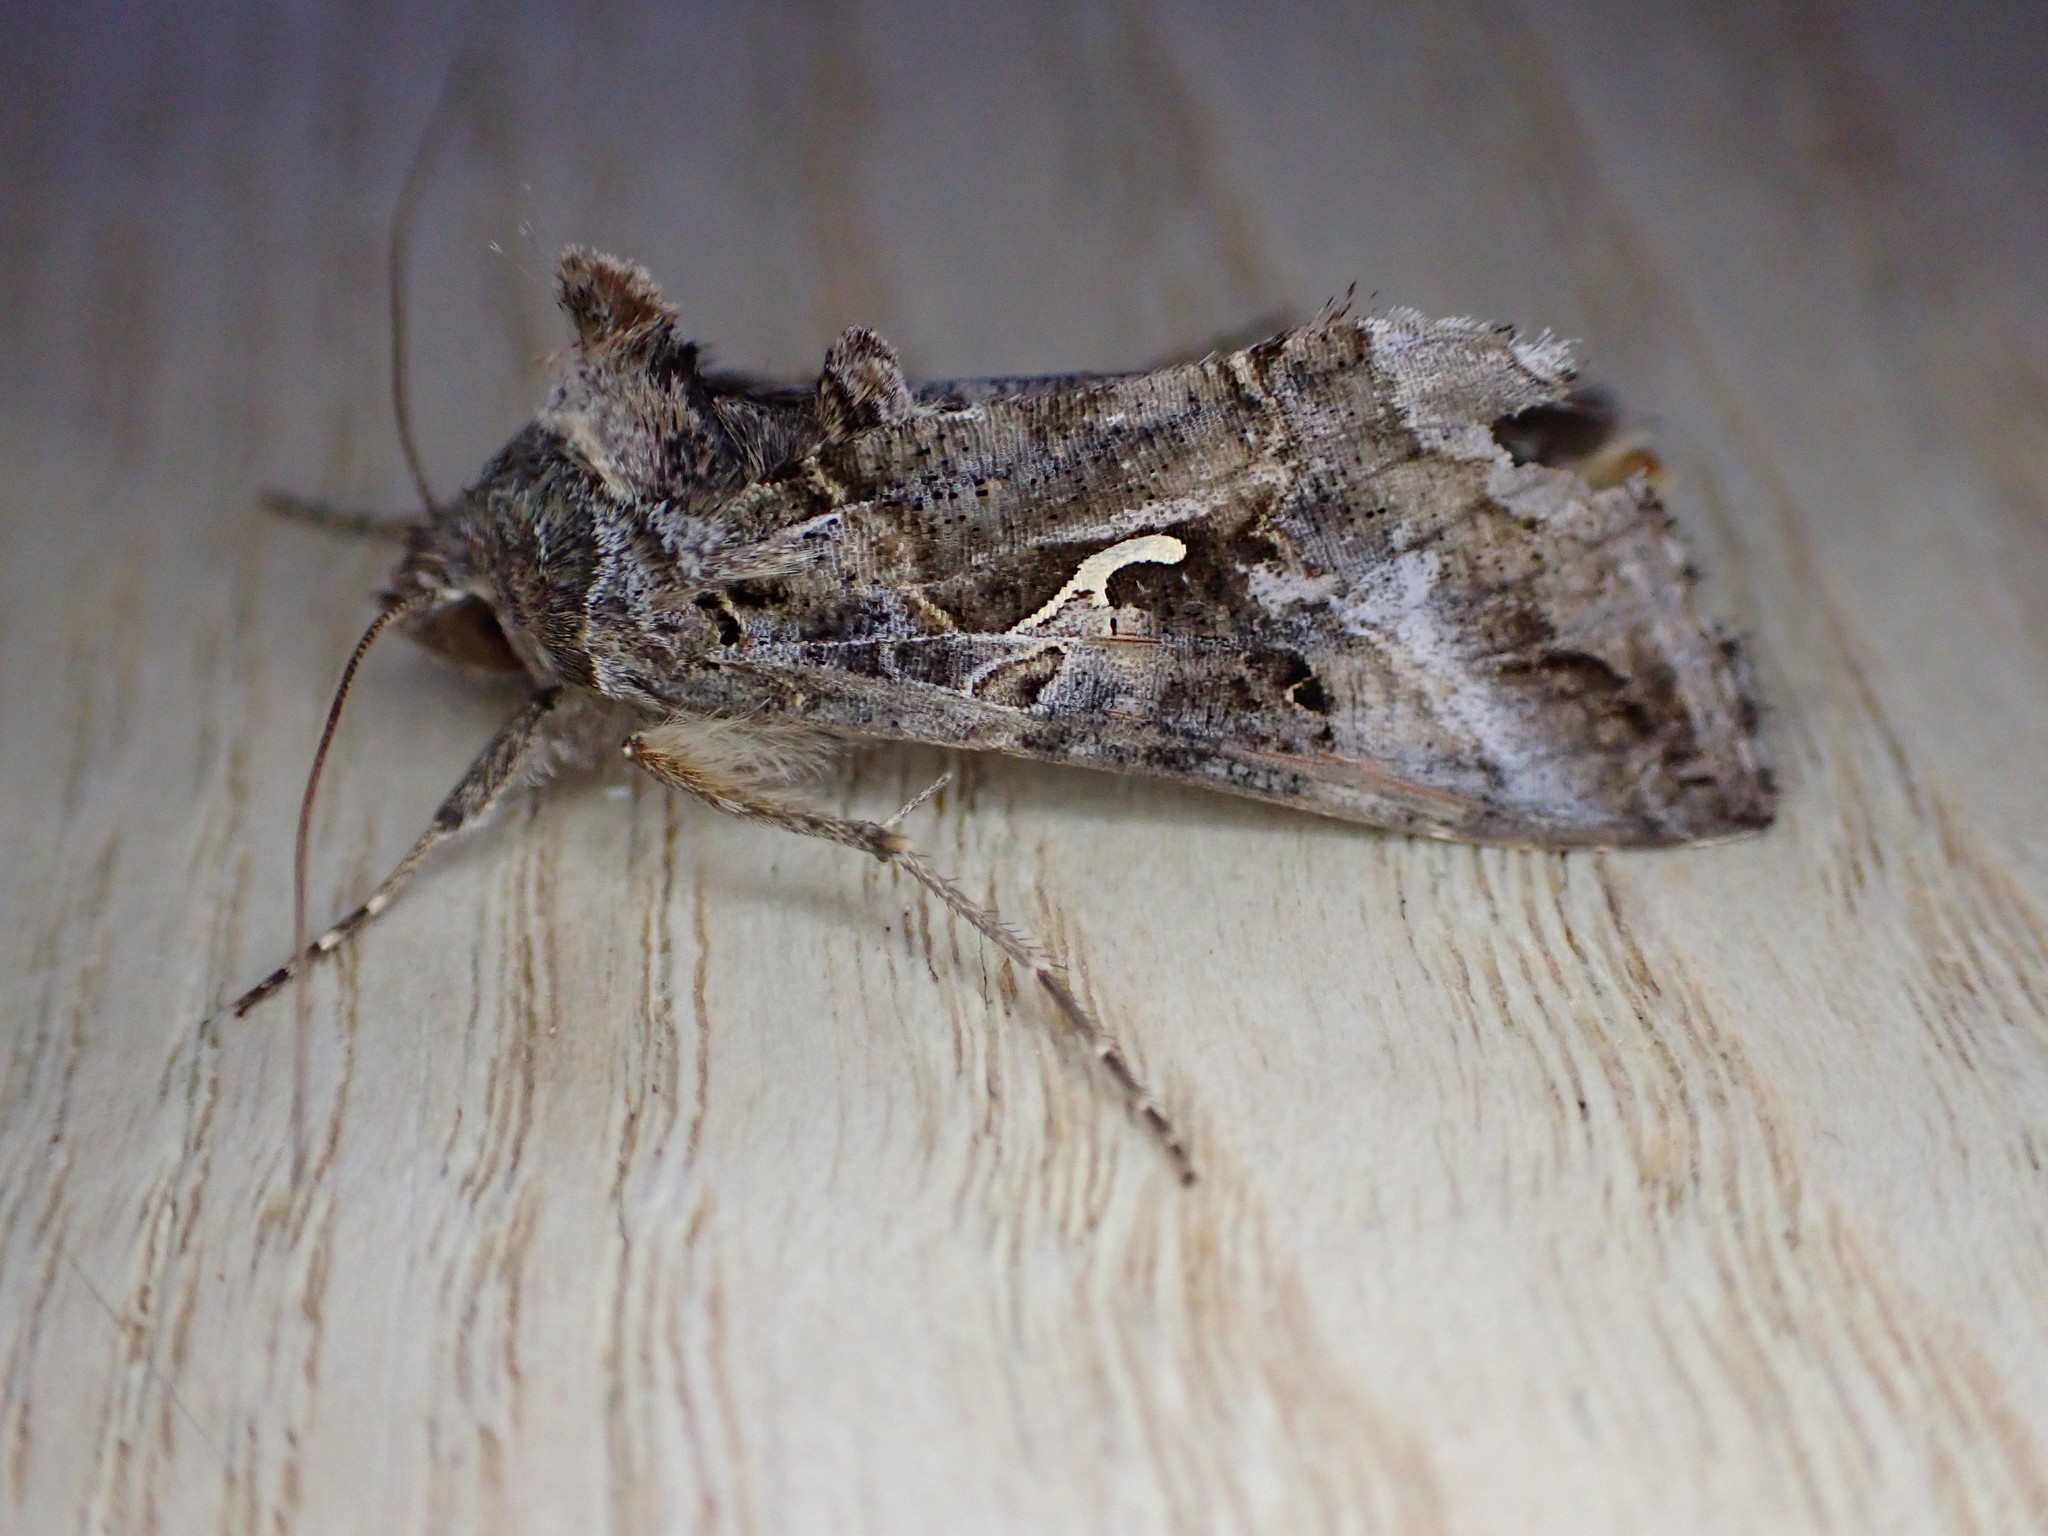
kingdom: Animalia
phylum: Arthropoda
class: Insecta
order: Lepidoptera
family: Noctuidae
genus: Autographa
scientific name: Autographa gamma
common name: Silver y
